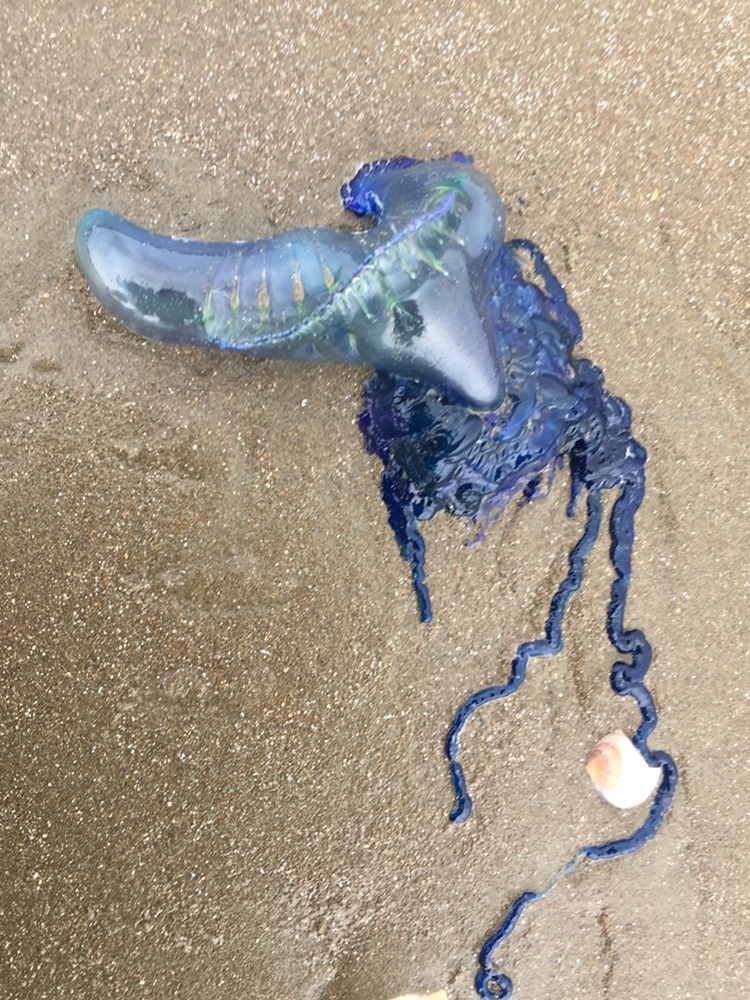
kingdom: Animalia
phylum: Cnidaria
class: Hydrozoa
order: Siphonophorae
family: Physaliidae
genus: Physalia
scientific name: Physalia physalis
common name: Portuguese man-of-war
